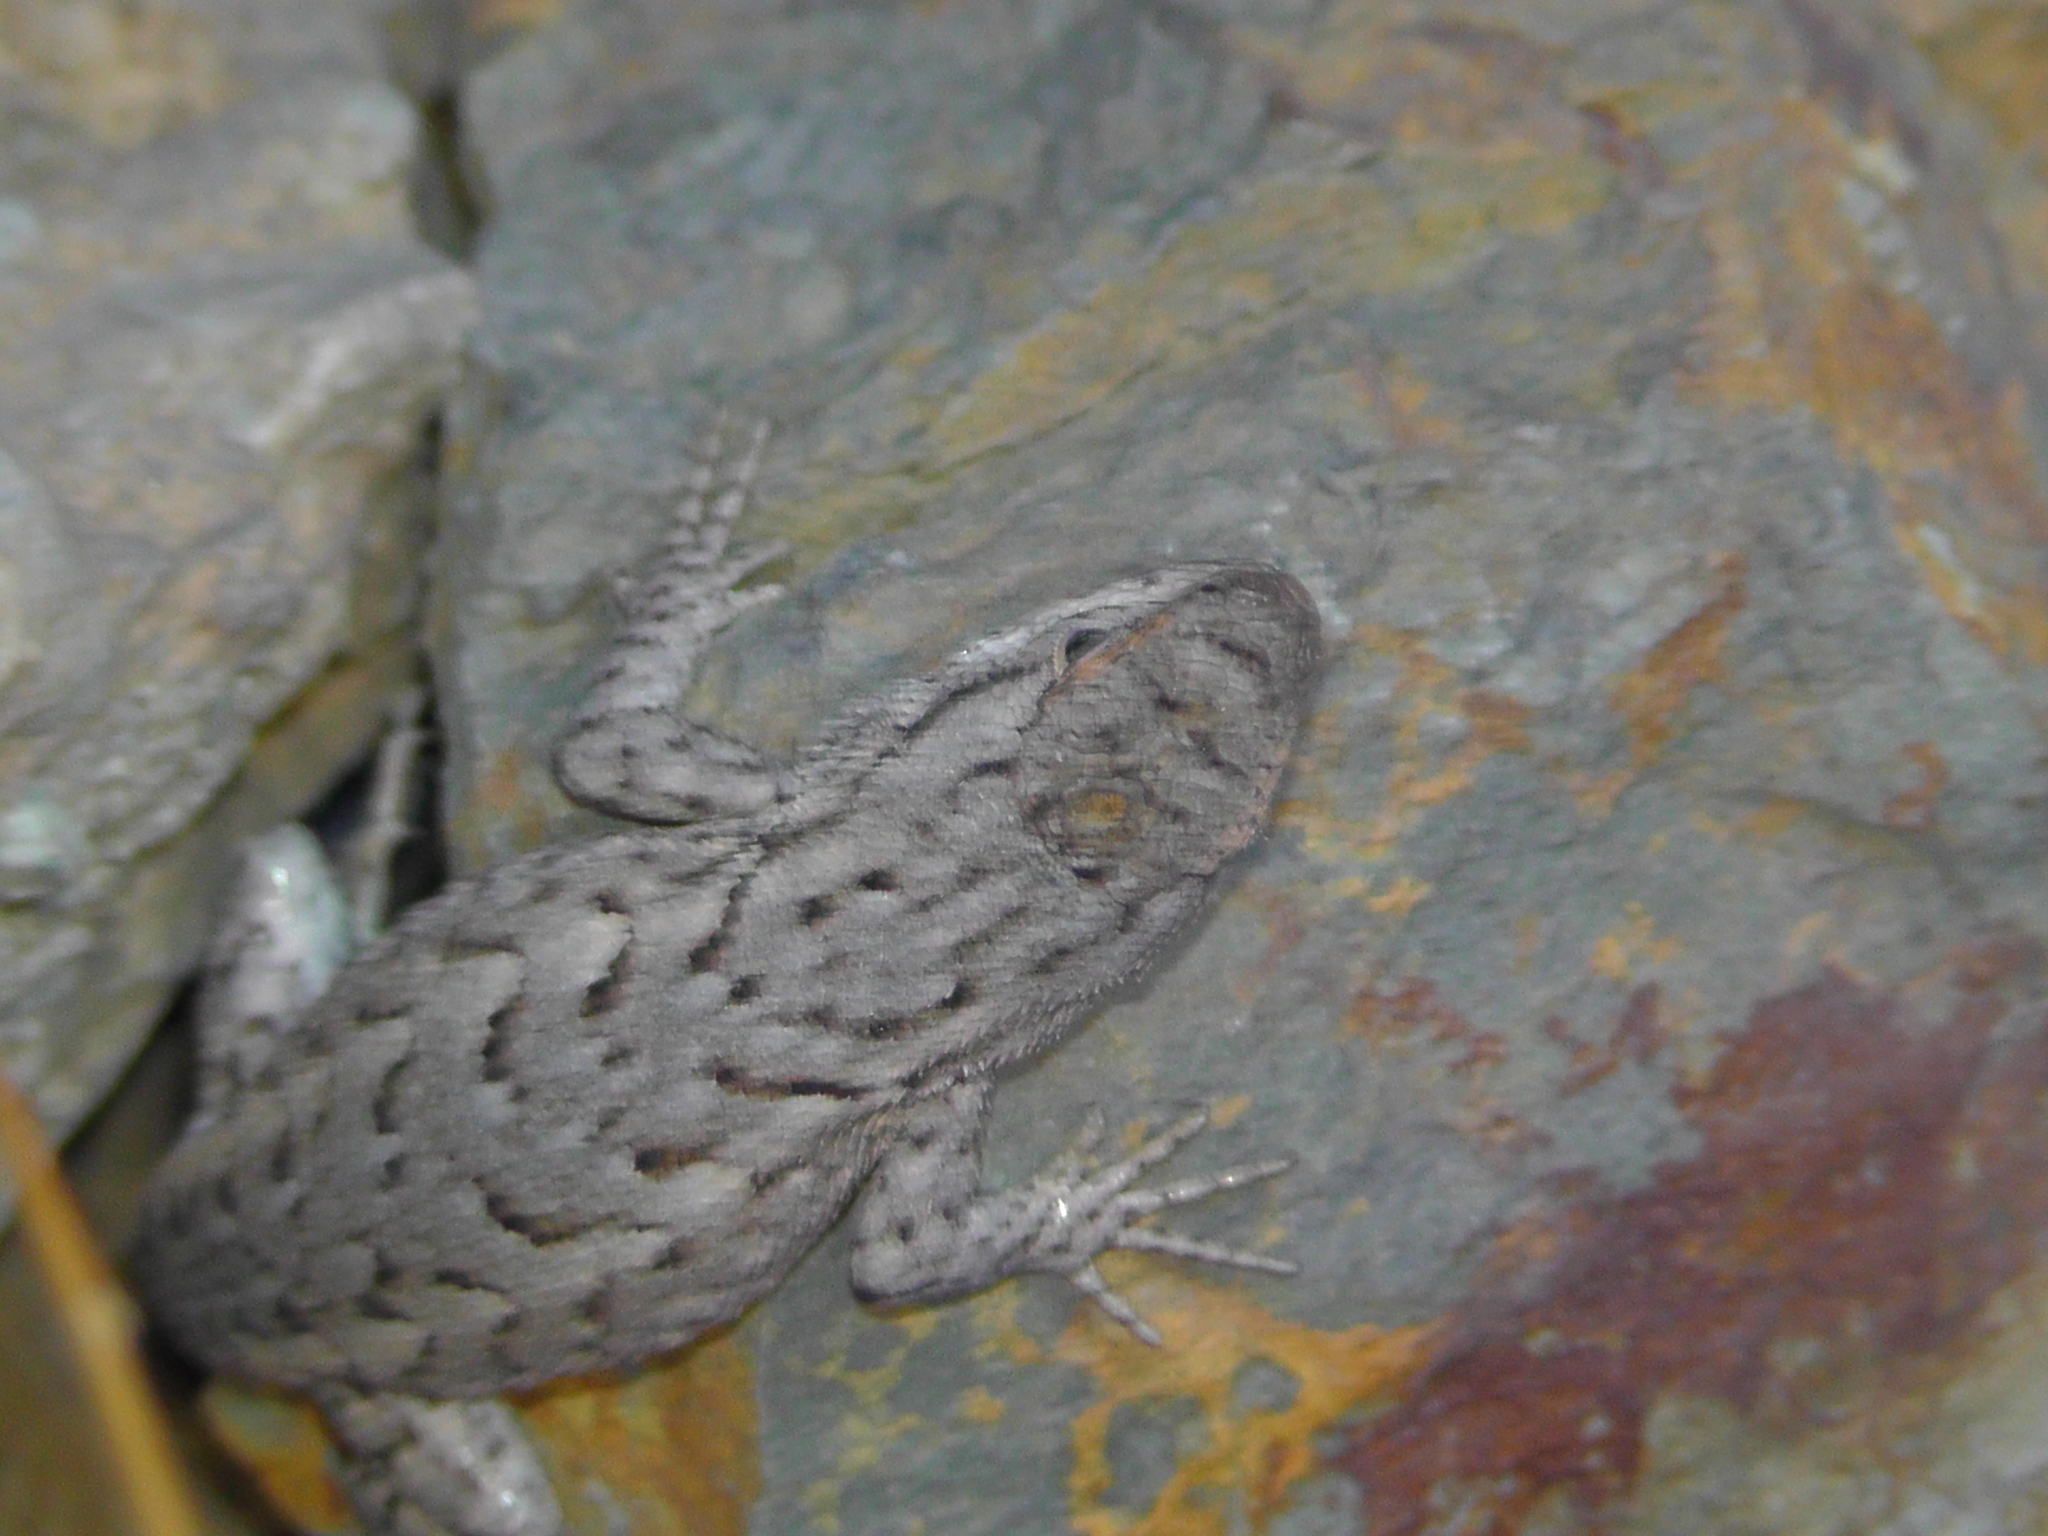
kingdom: Animalia
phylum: Chordata
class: Squamata
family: Phrynosomatidae
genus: Sceloporus
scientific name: Sceloporus consobrinus
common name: Southern prairie lizard
